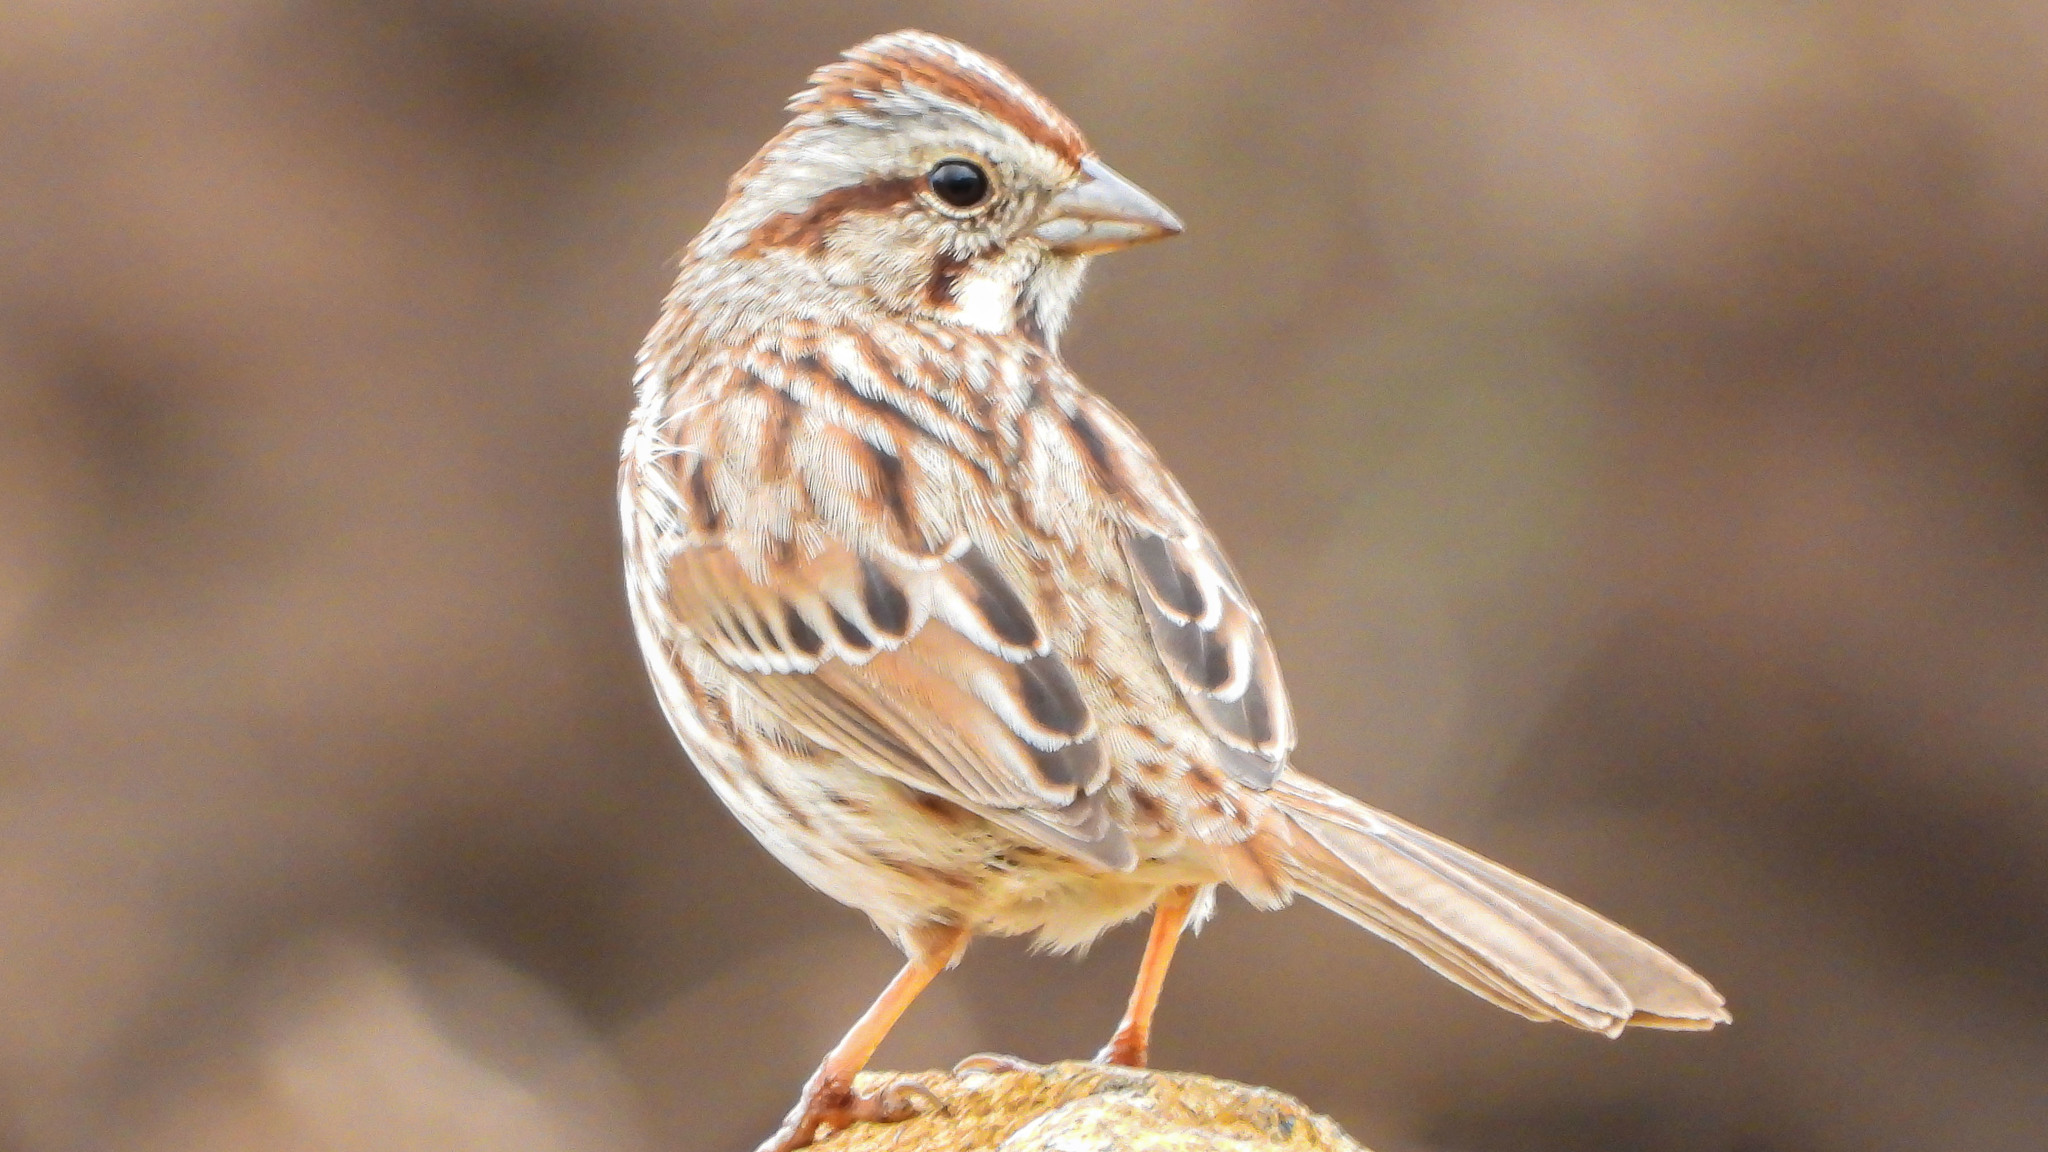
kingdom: Animalia
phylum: Chordata
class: Aves
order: Passeriformes
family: Passerellidae
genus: Melospiza
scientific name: Melospiza melodia
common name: Song sparrow
